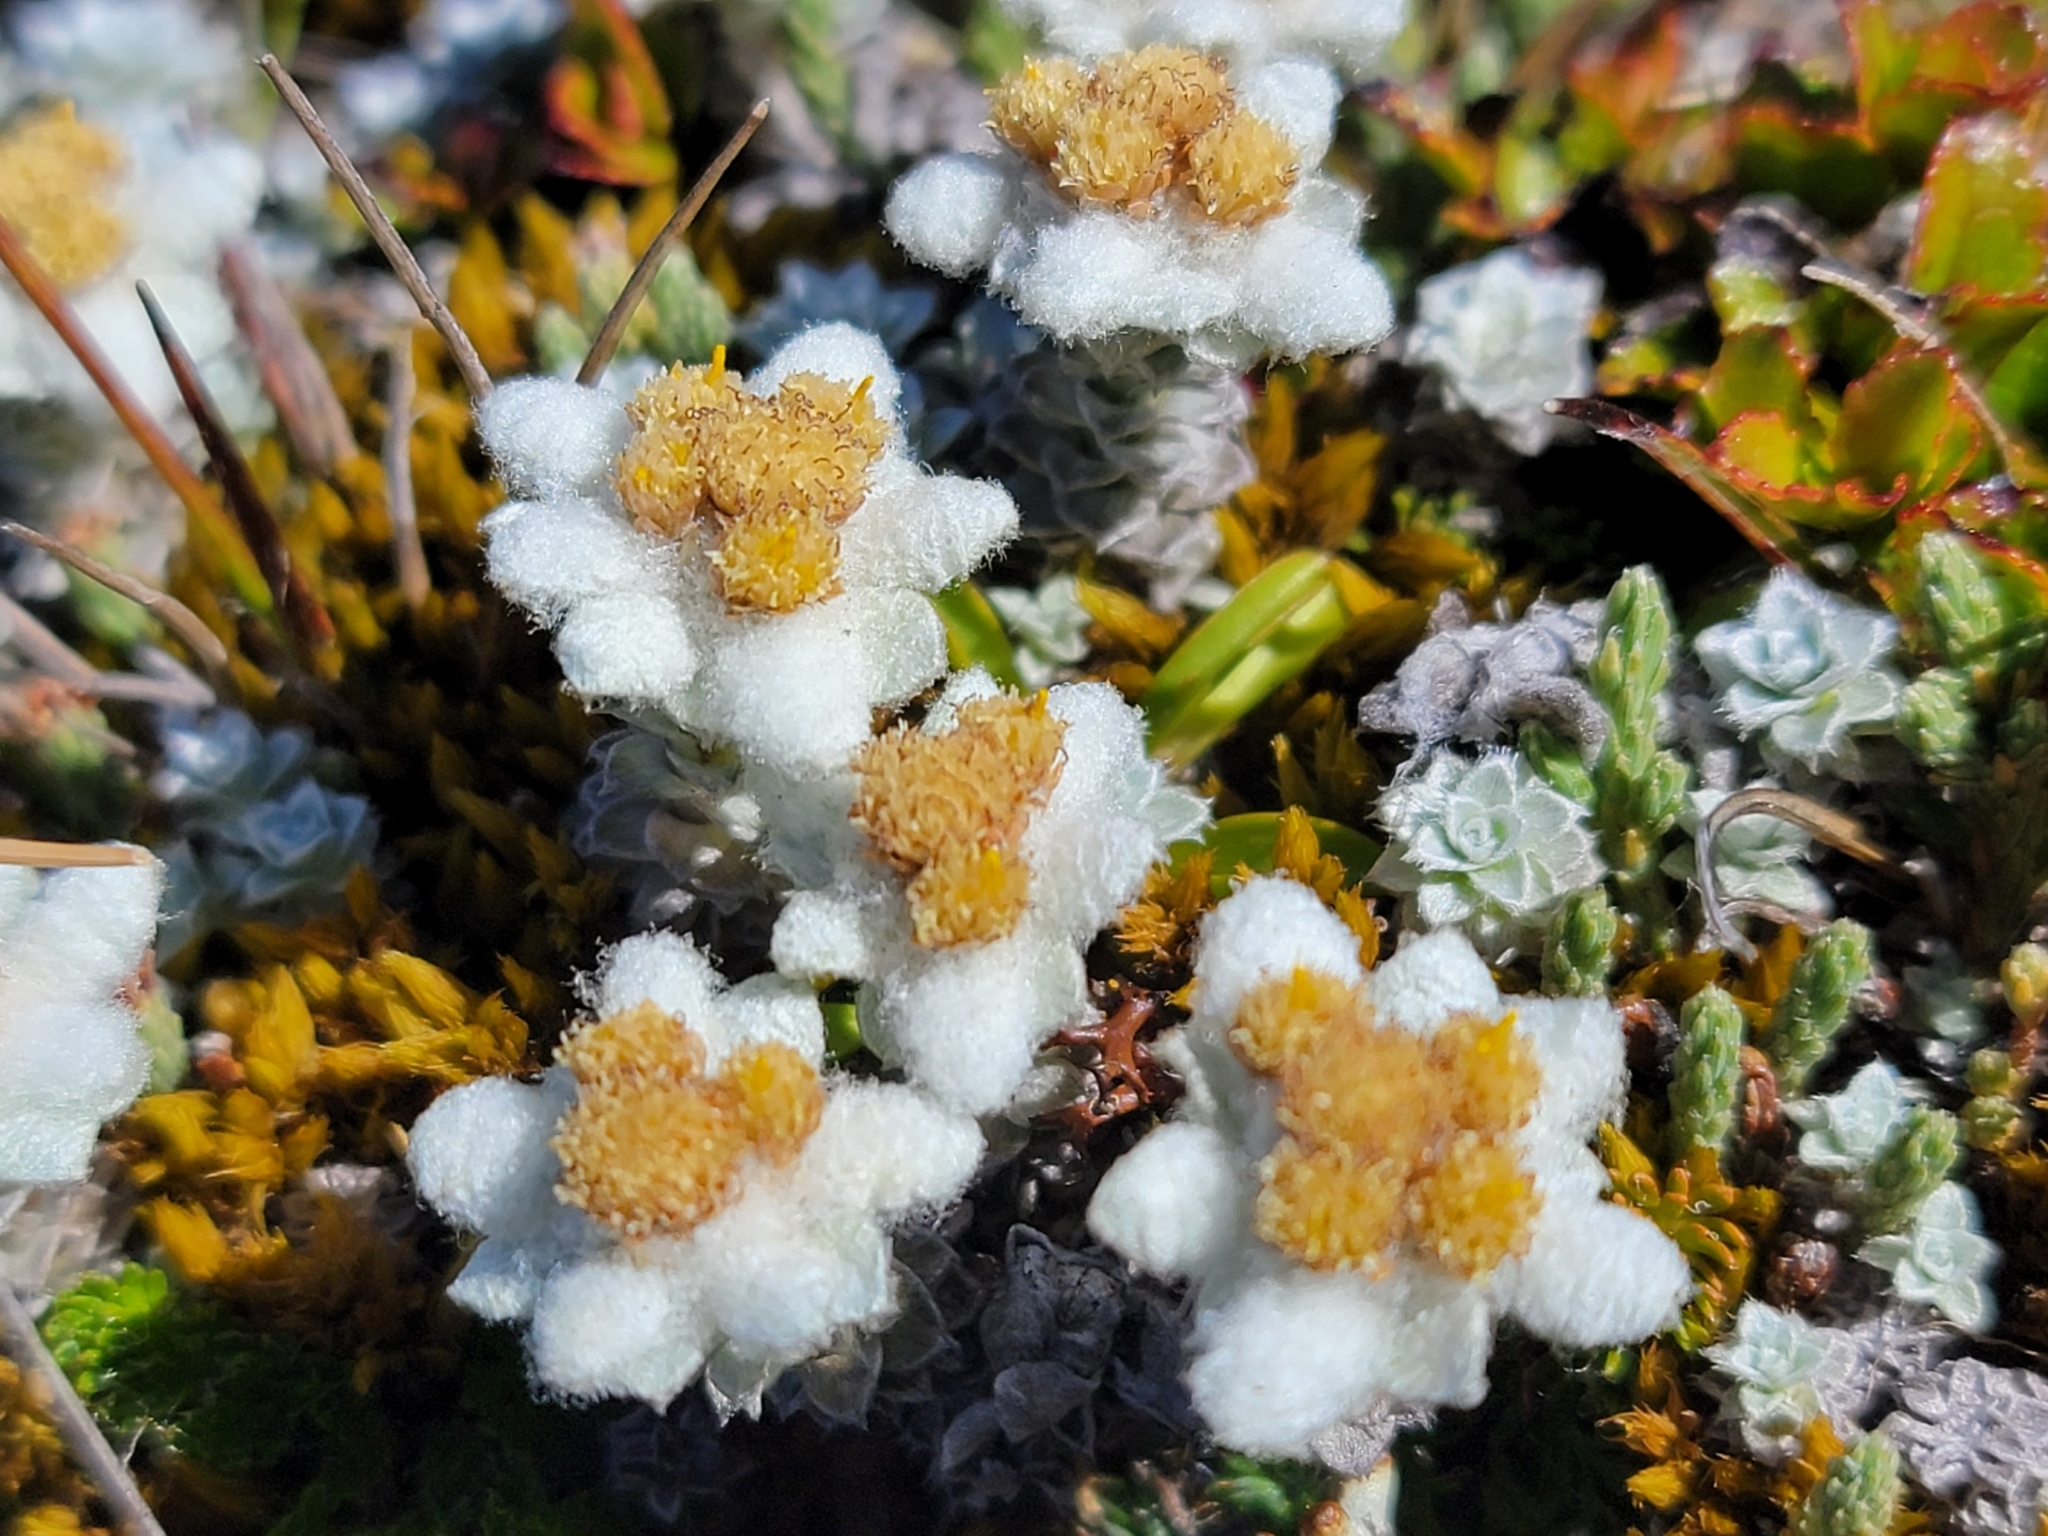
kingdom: Plantae
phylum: Tracheophyta
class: Magnoliopsida
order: Asterales
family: Asteraceae
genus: Leucogenes
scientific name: Leucogenes grandiceps
